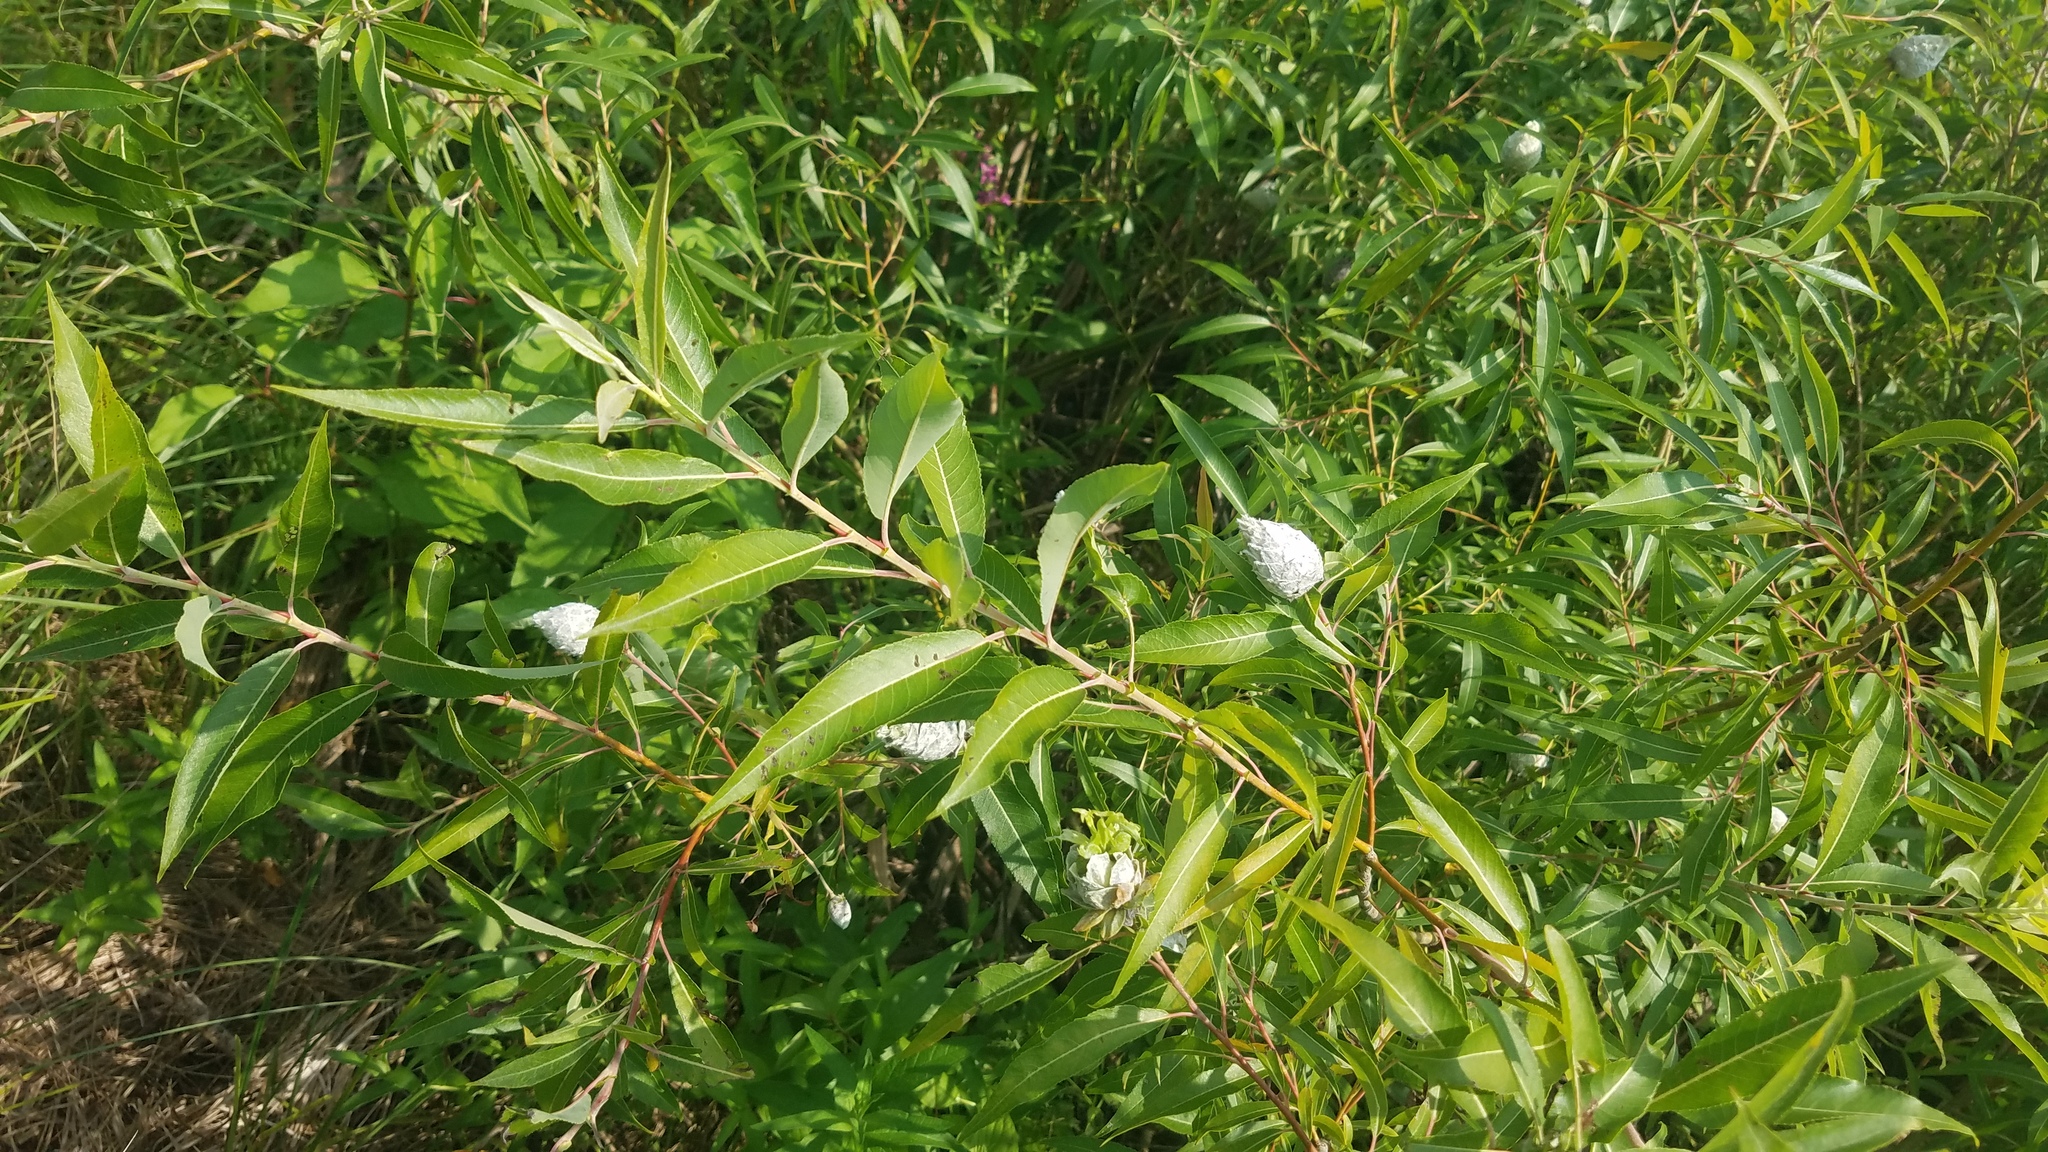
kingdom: Animalia
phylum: Arthropoda
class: Insecta
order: Diptera
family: Cecidomyiidae
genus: Rabdophaga
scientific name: Rabdophaga strobiloides
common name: Willow pinecone gall midge
